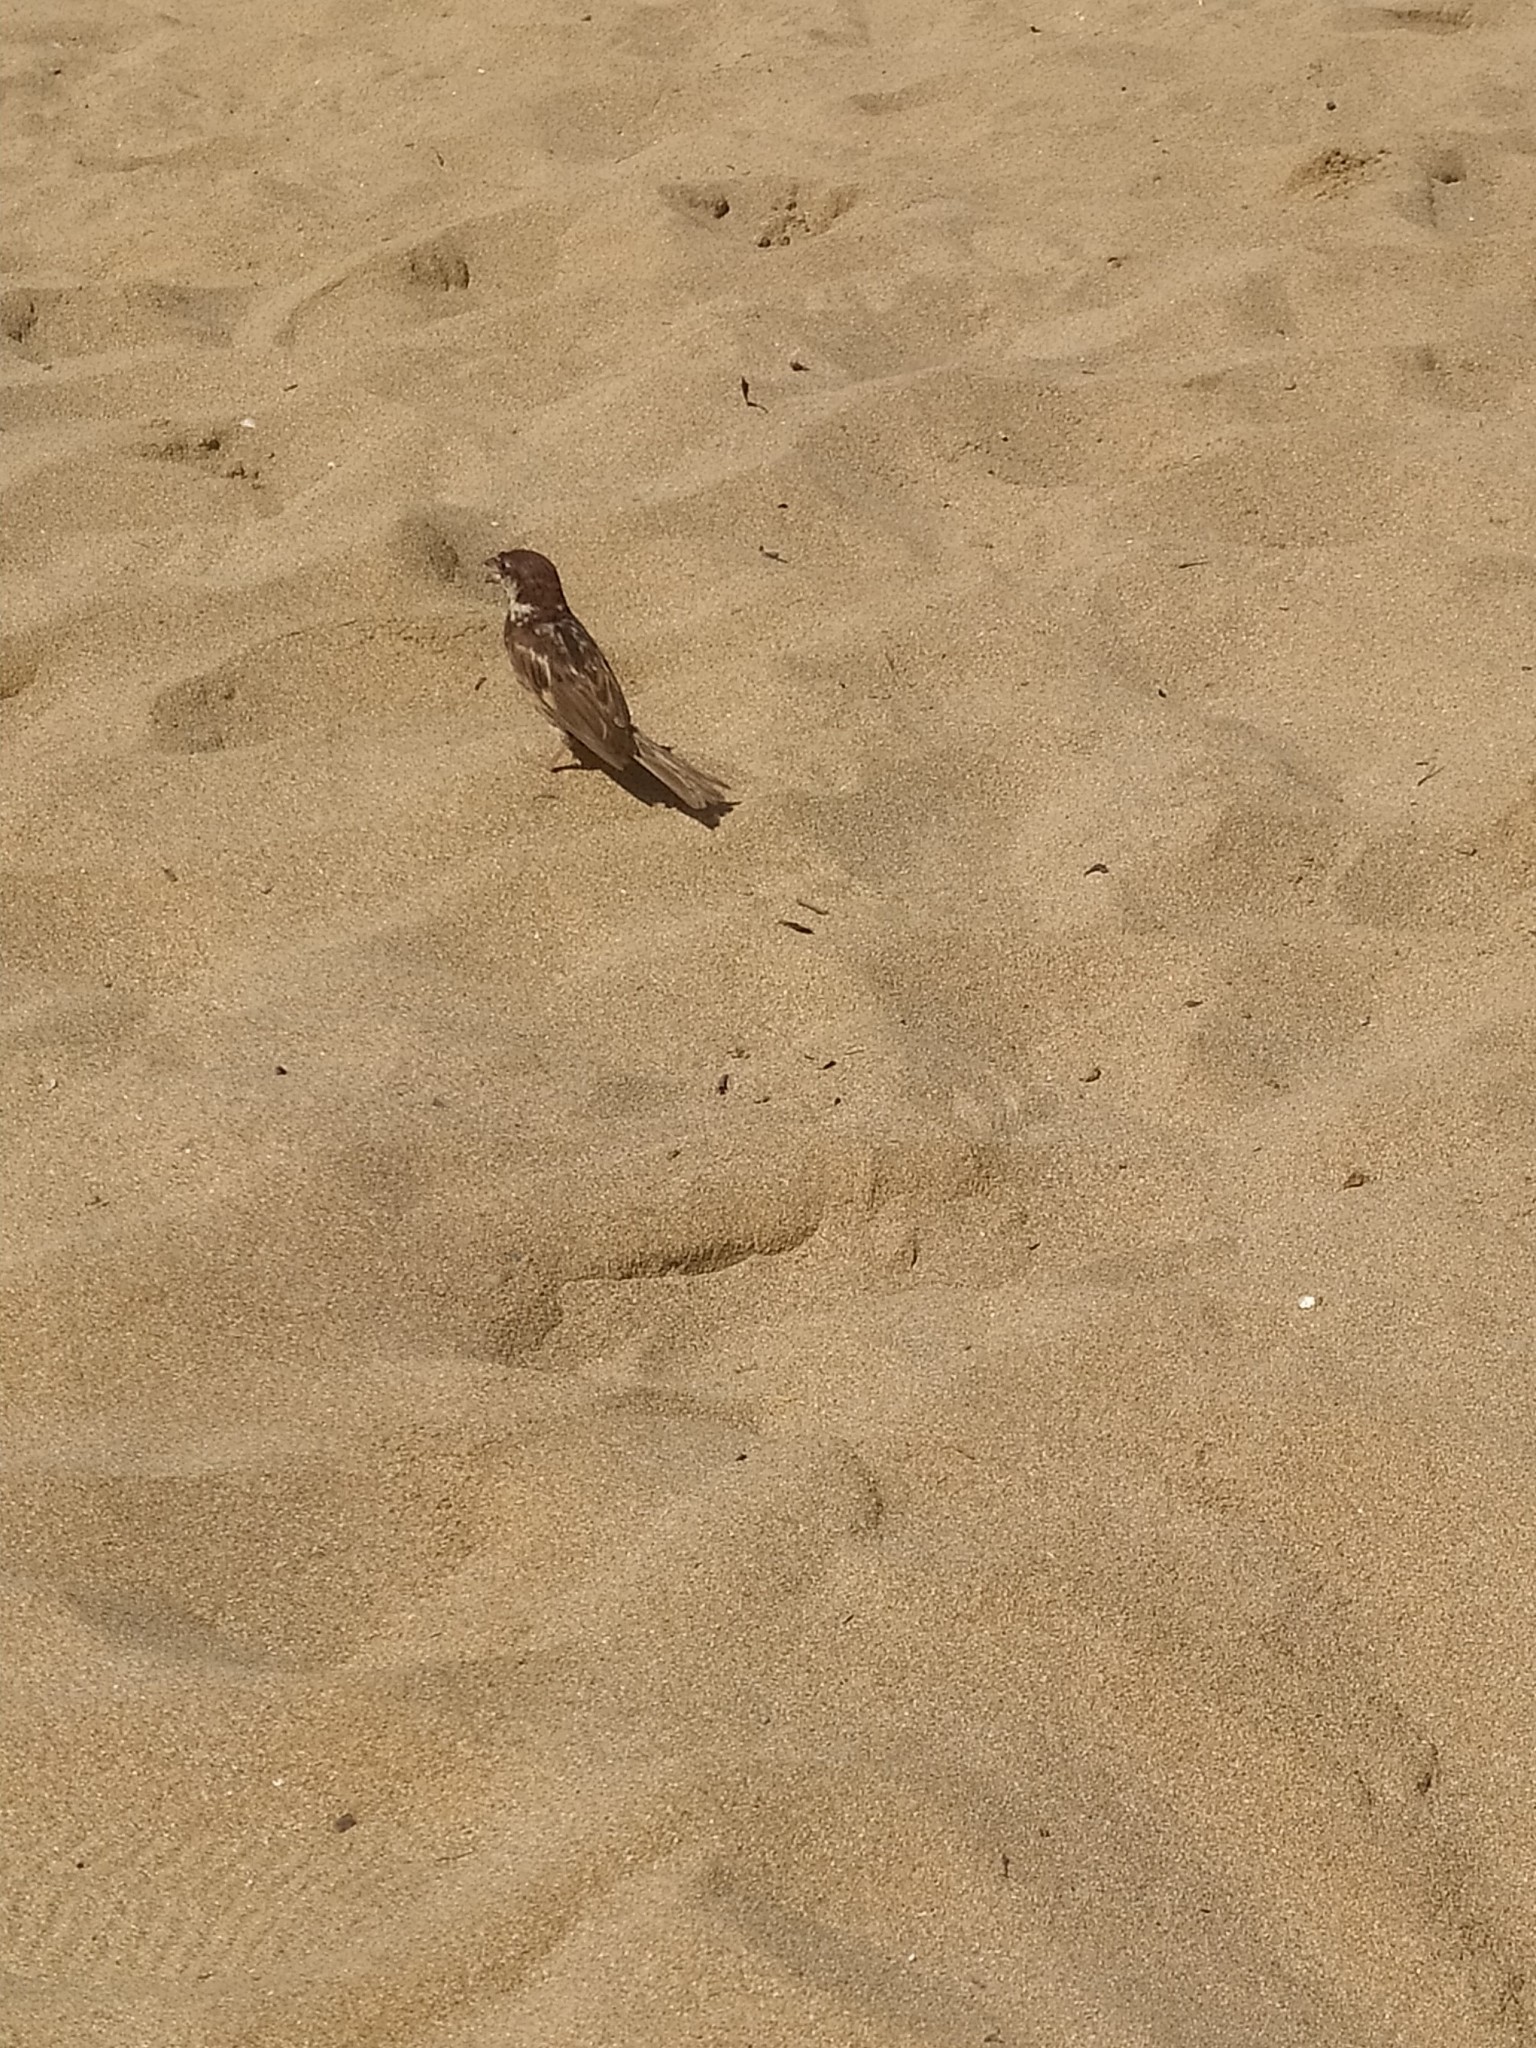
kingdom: Animalia
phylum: Chordata
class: Aves
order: Passeriformes
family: Passeridae
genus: Passer
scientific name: Passer hispaniolensis
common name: Spanish sparrow
